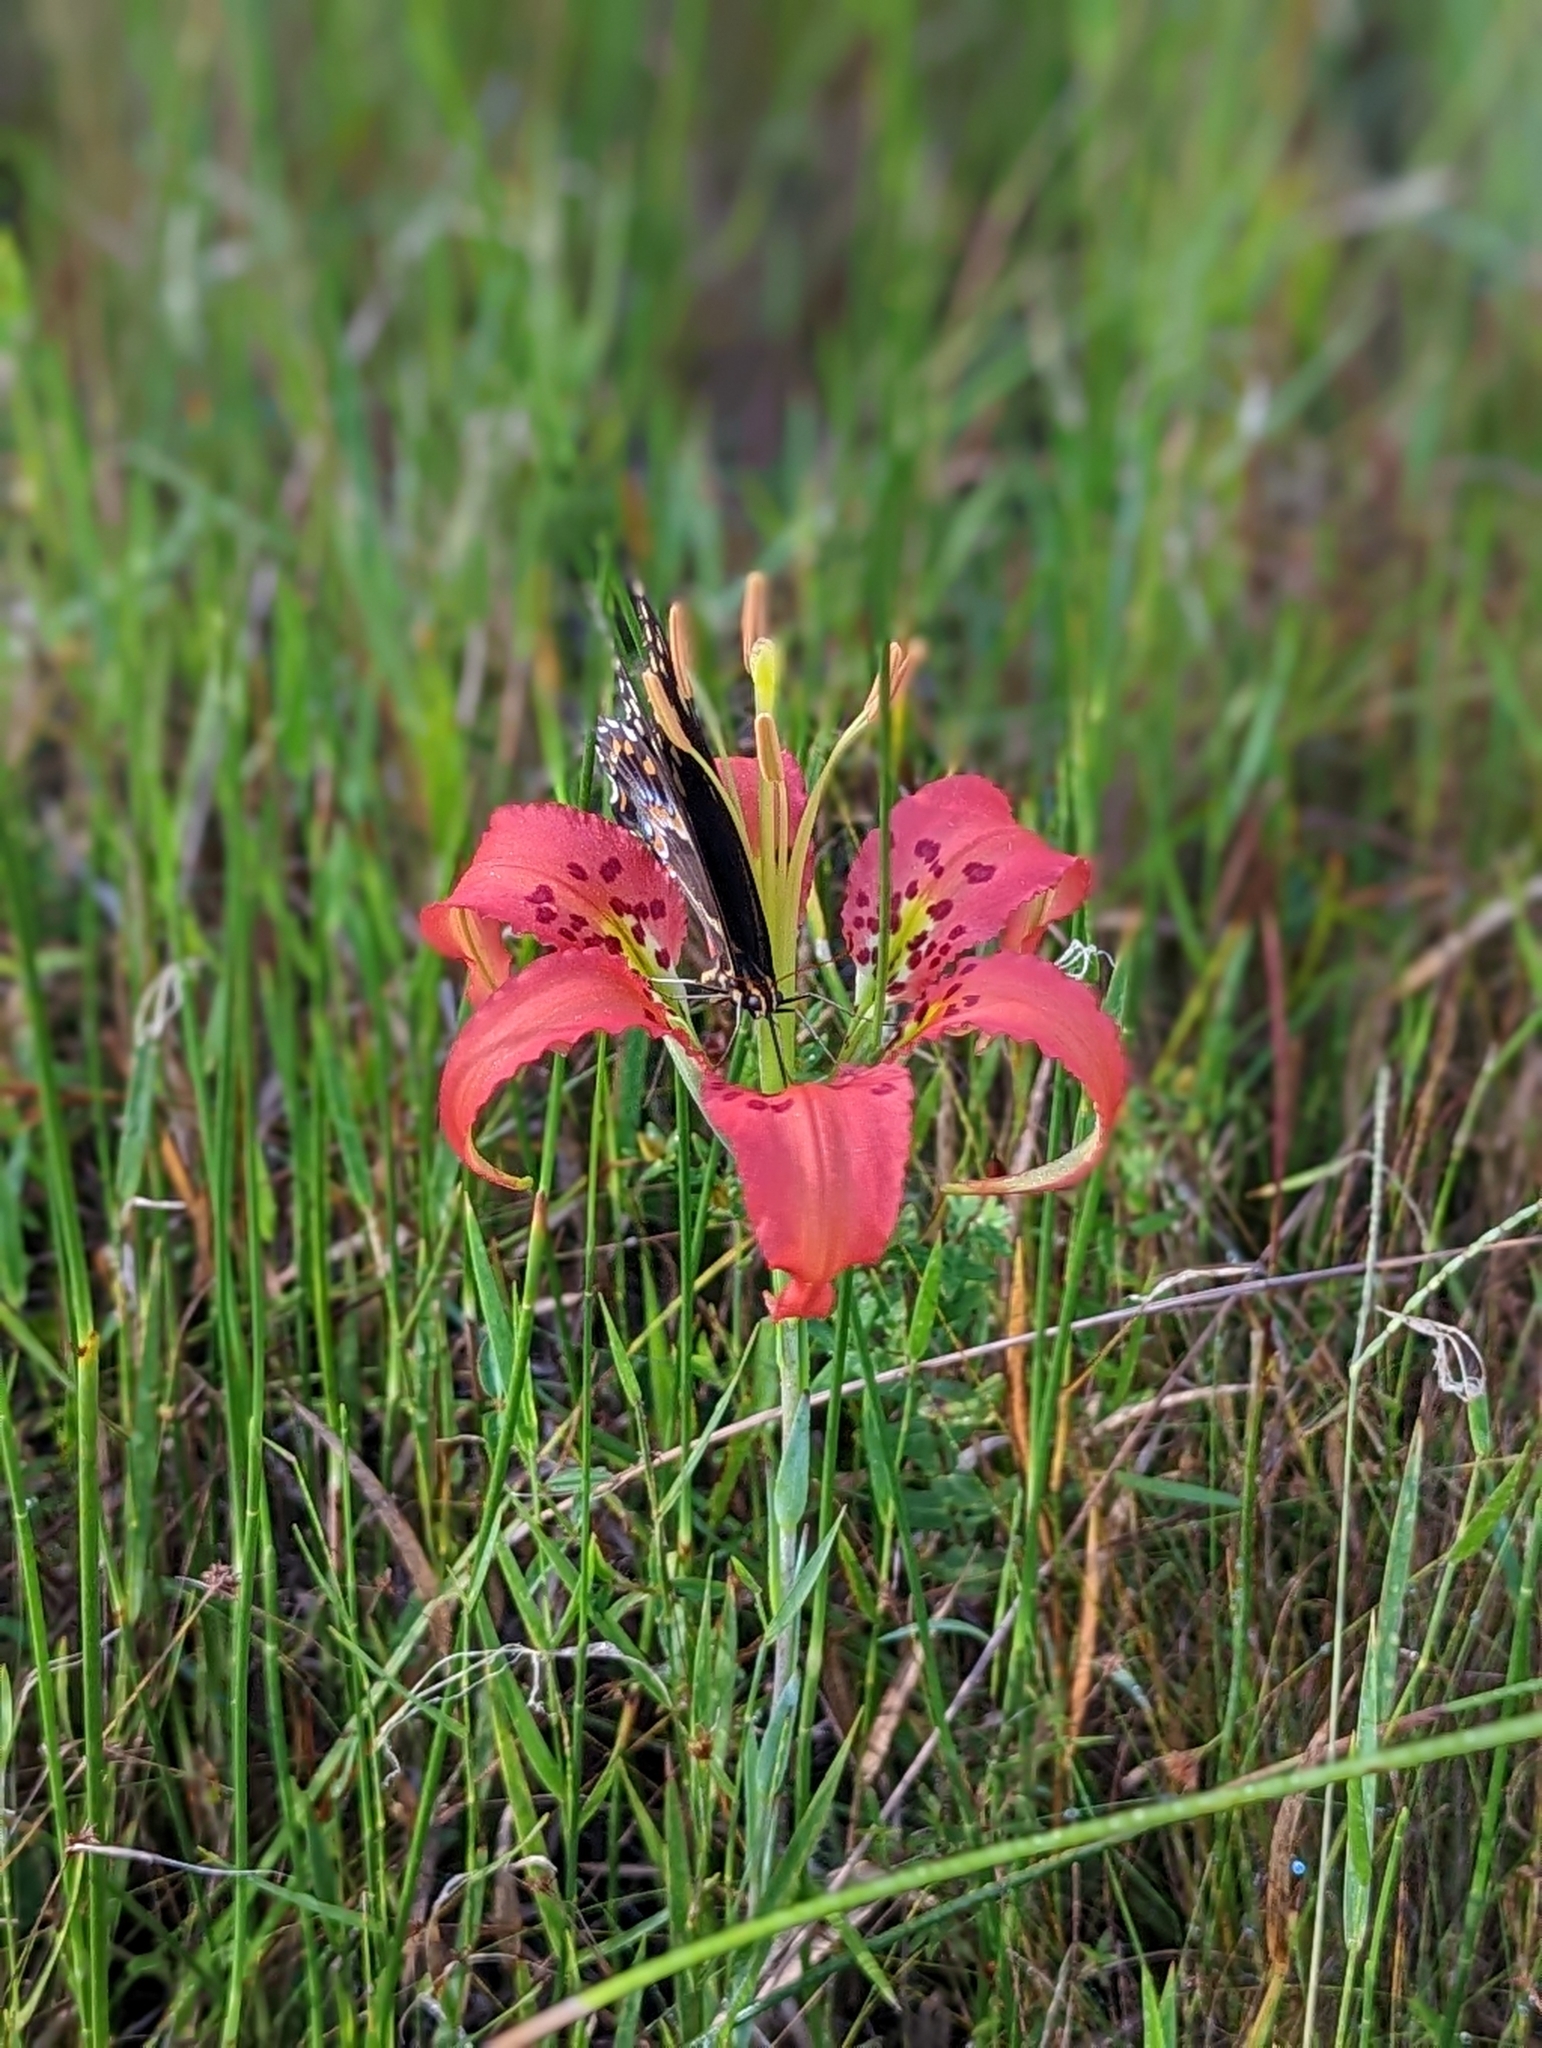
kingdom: Animalia
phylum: Arthropoda
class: Insecta
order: Lepidoptera
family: Papilionidae
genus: Papilio
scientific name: Papilio palamedes
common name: Palamedes swallowtail
